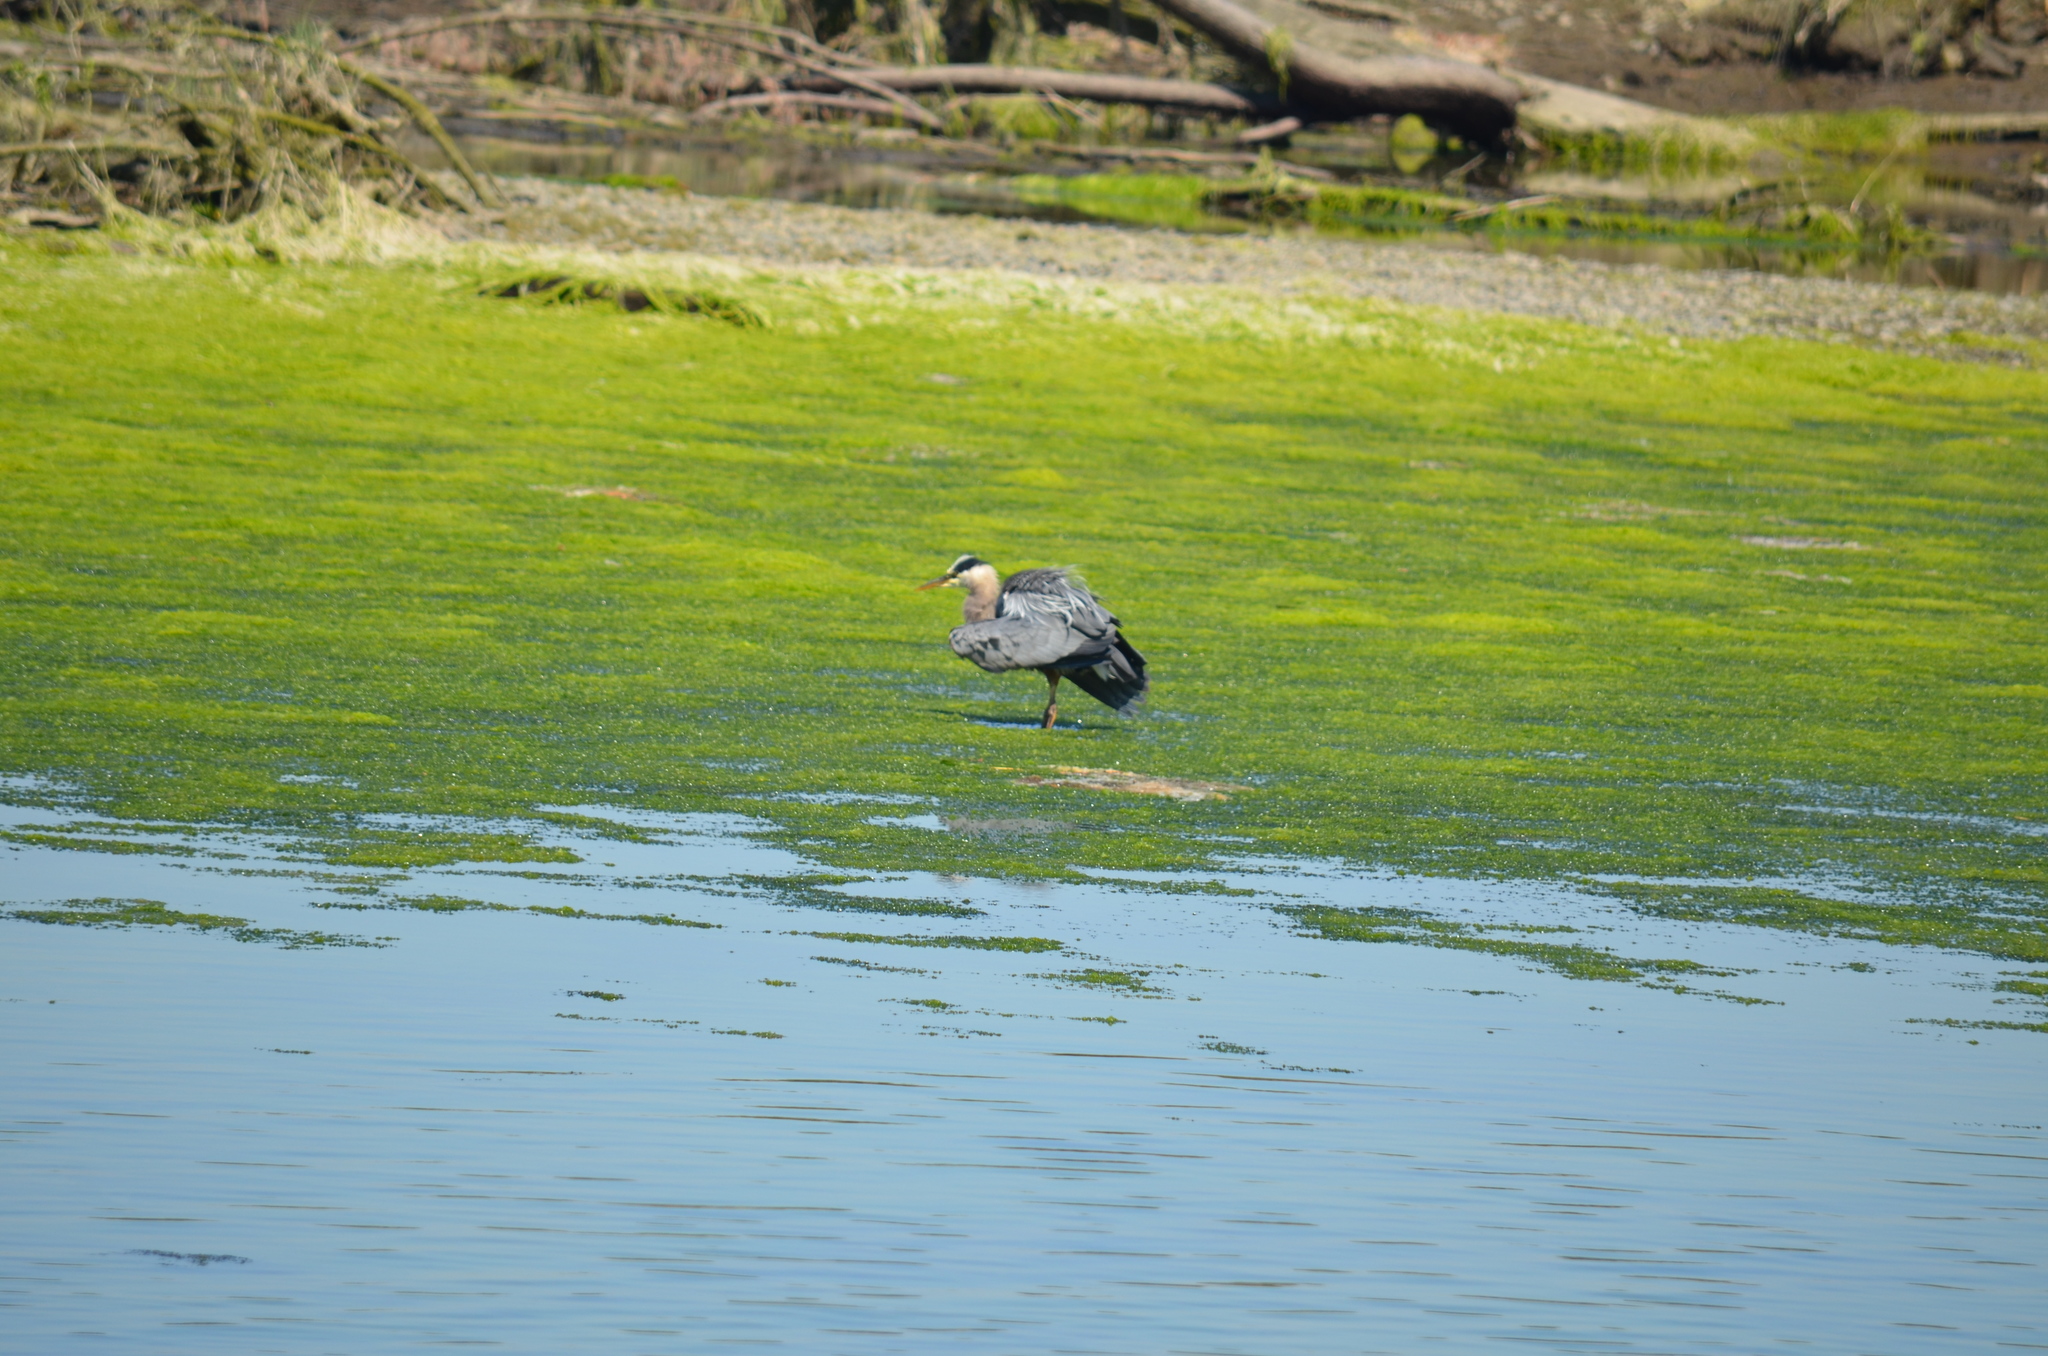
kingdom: Animalia
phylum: Chordata
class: Aves
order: Pelecaniformes
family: Ardeidae
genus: Ardea
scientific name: Ardea herodias
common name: Great blue heron
